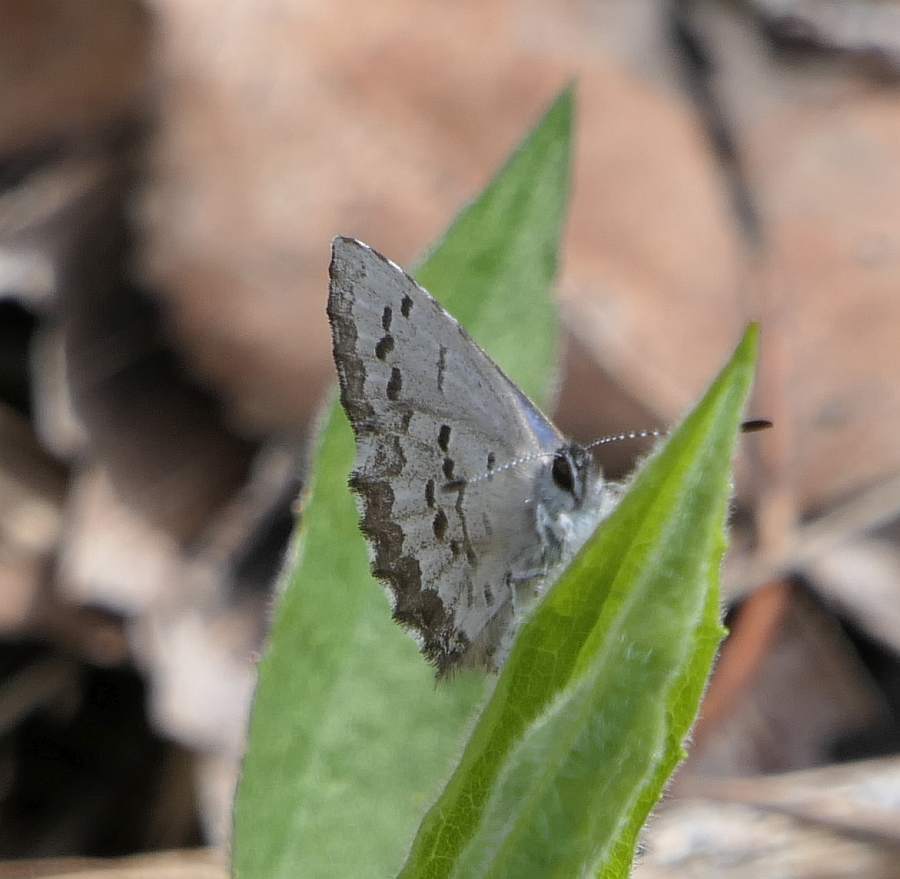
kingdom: Animalia
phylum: Arthropoda
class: Insecta
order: Lepidoptera
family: Lycaenidae
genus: Celastrina
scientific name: Celastrina lucia
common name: Lucia azure
